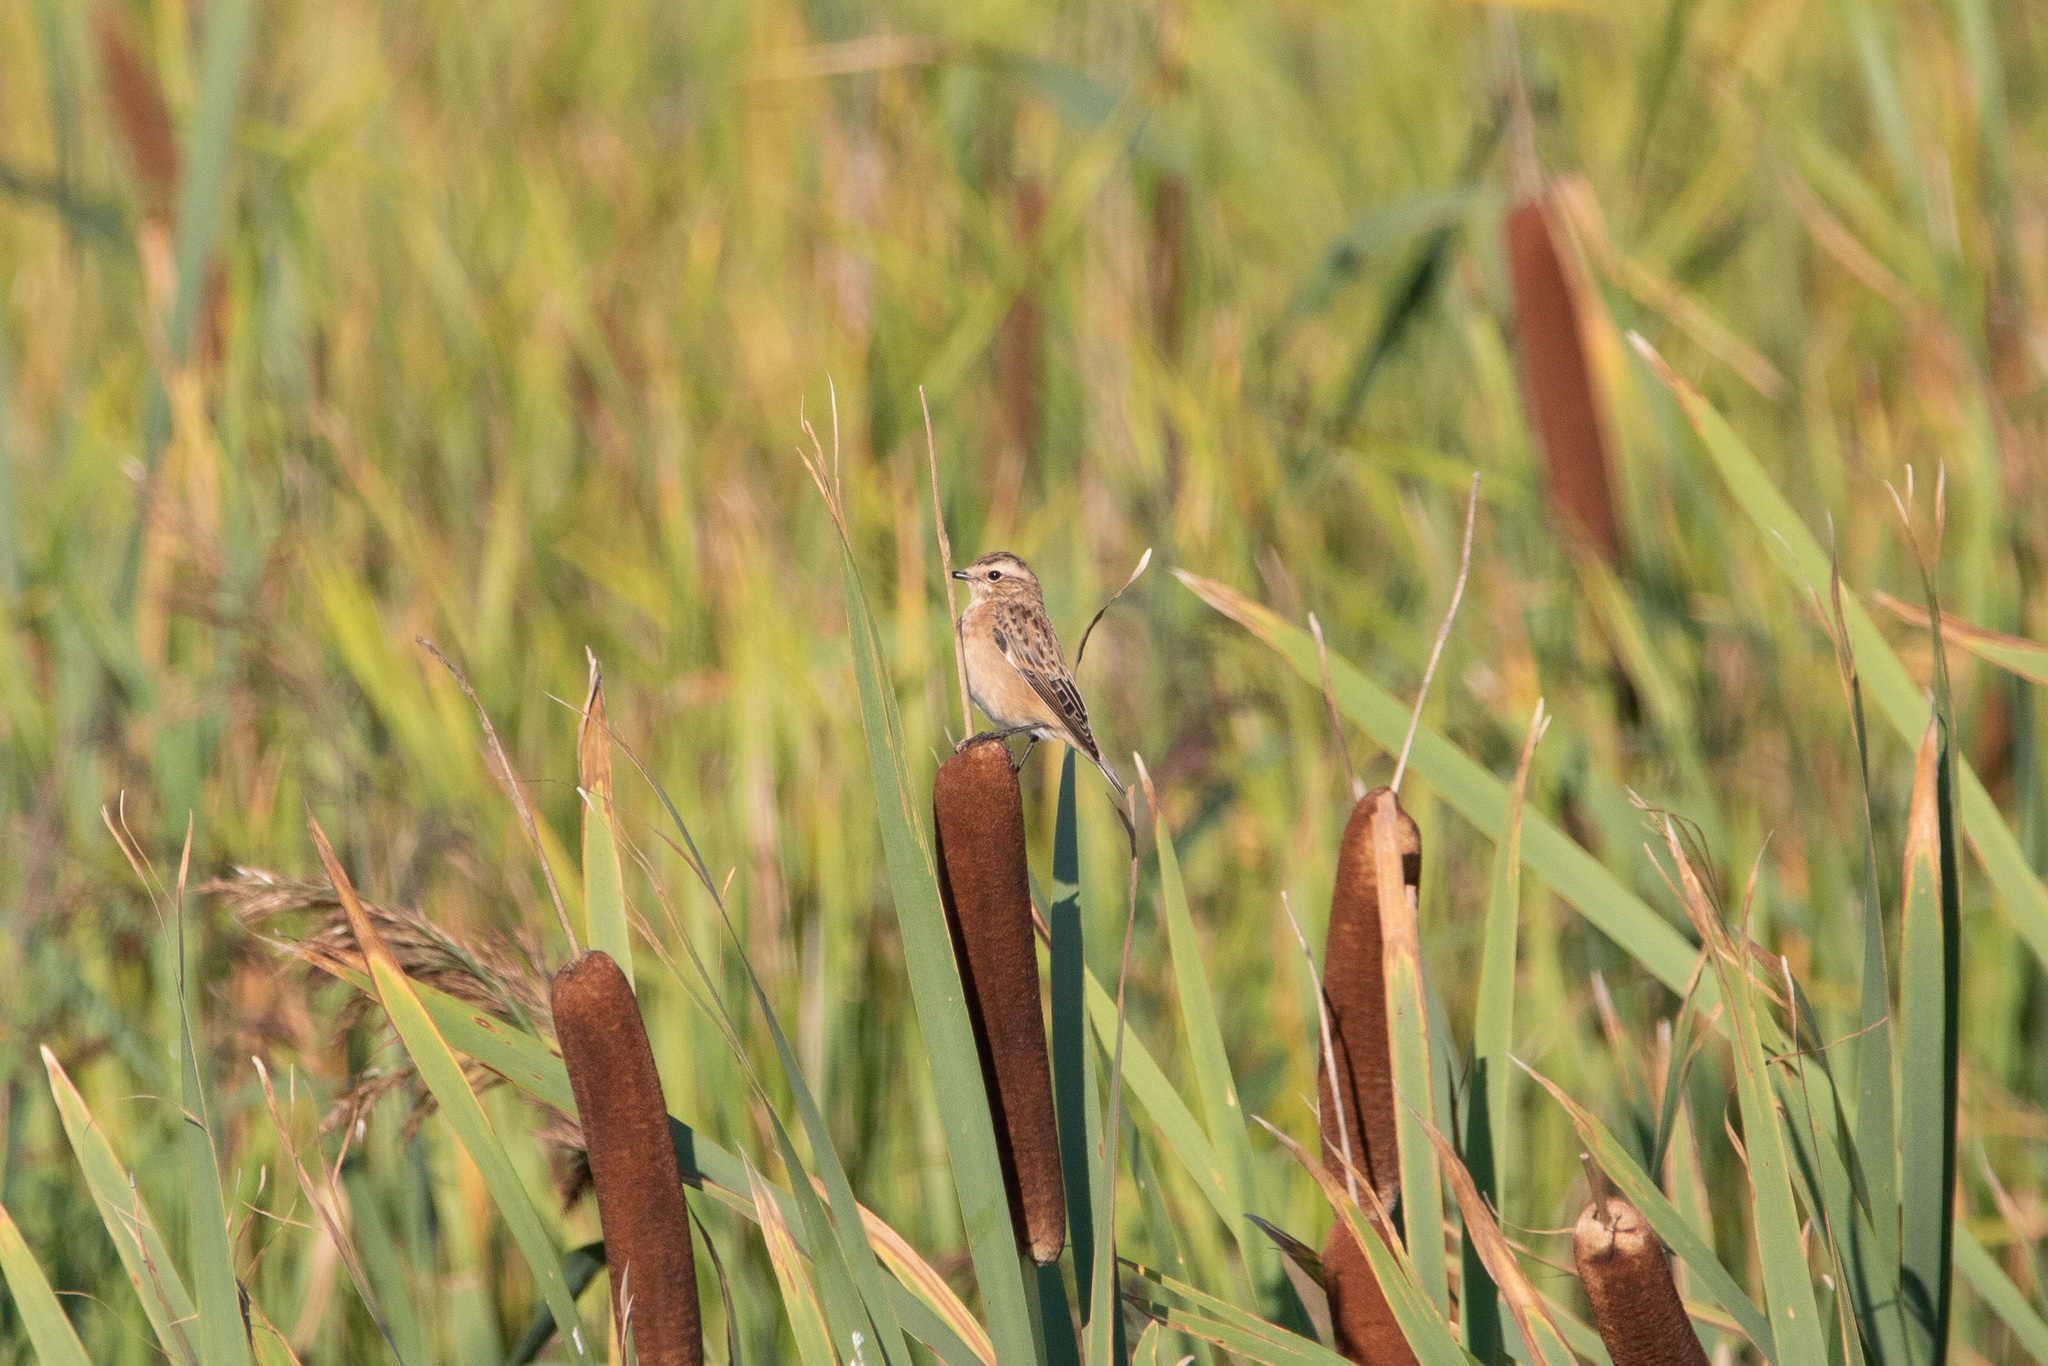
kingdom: Animalia
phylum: Chordata
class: Aves
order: Passeriformes
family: Muscicapidae
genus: Saxicola
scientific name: Saxicola rubetra
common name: Whinchat
